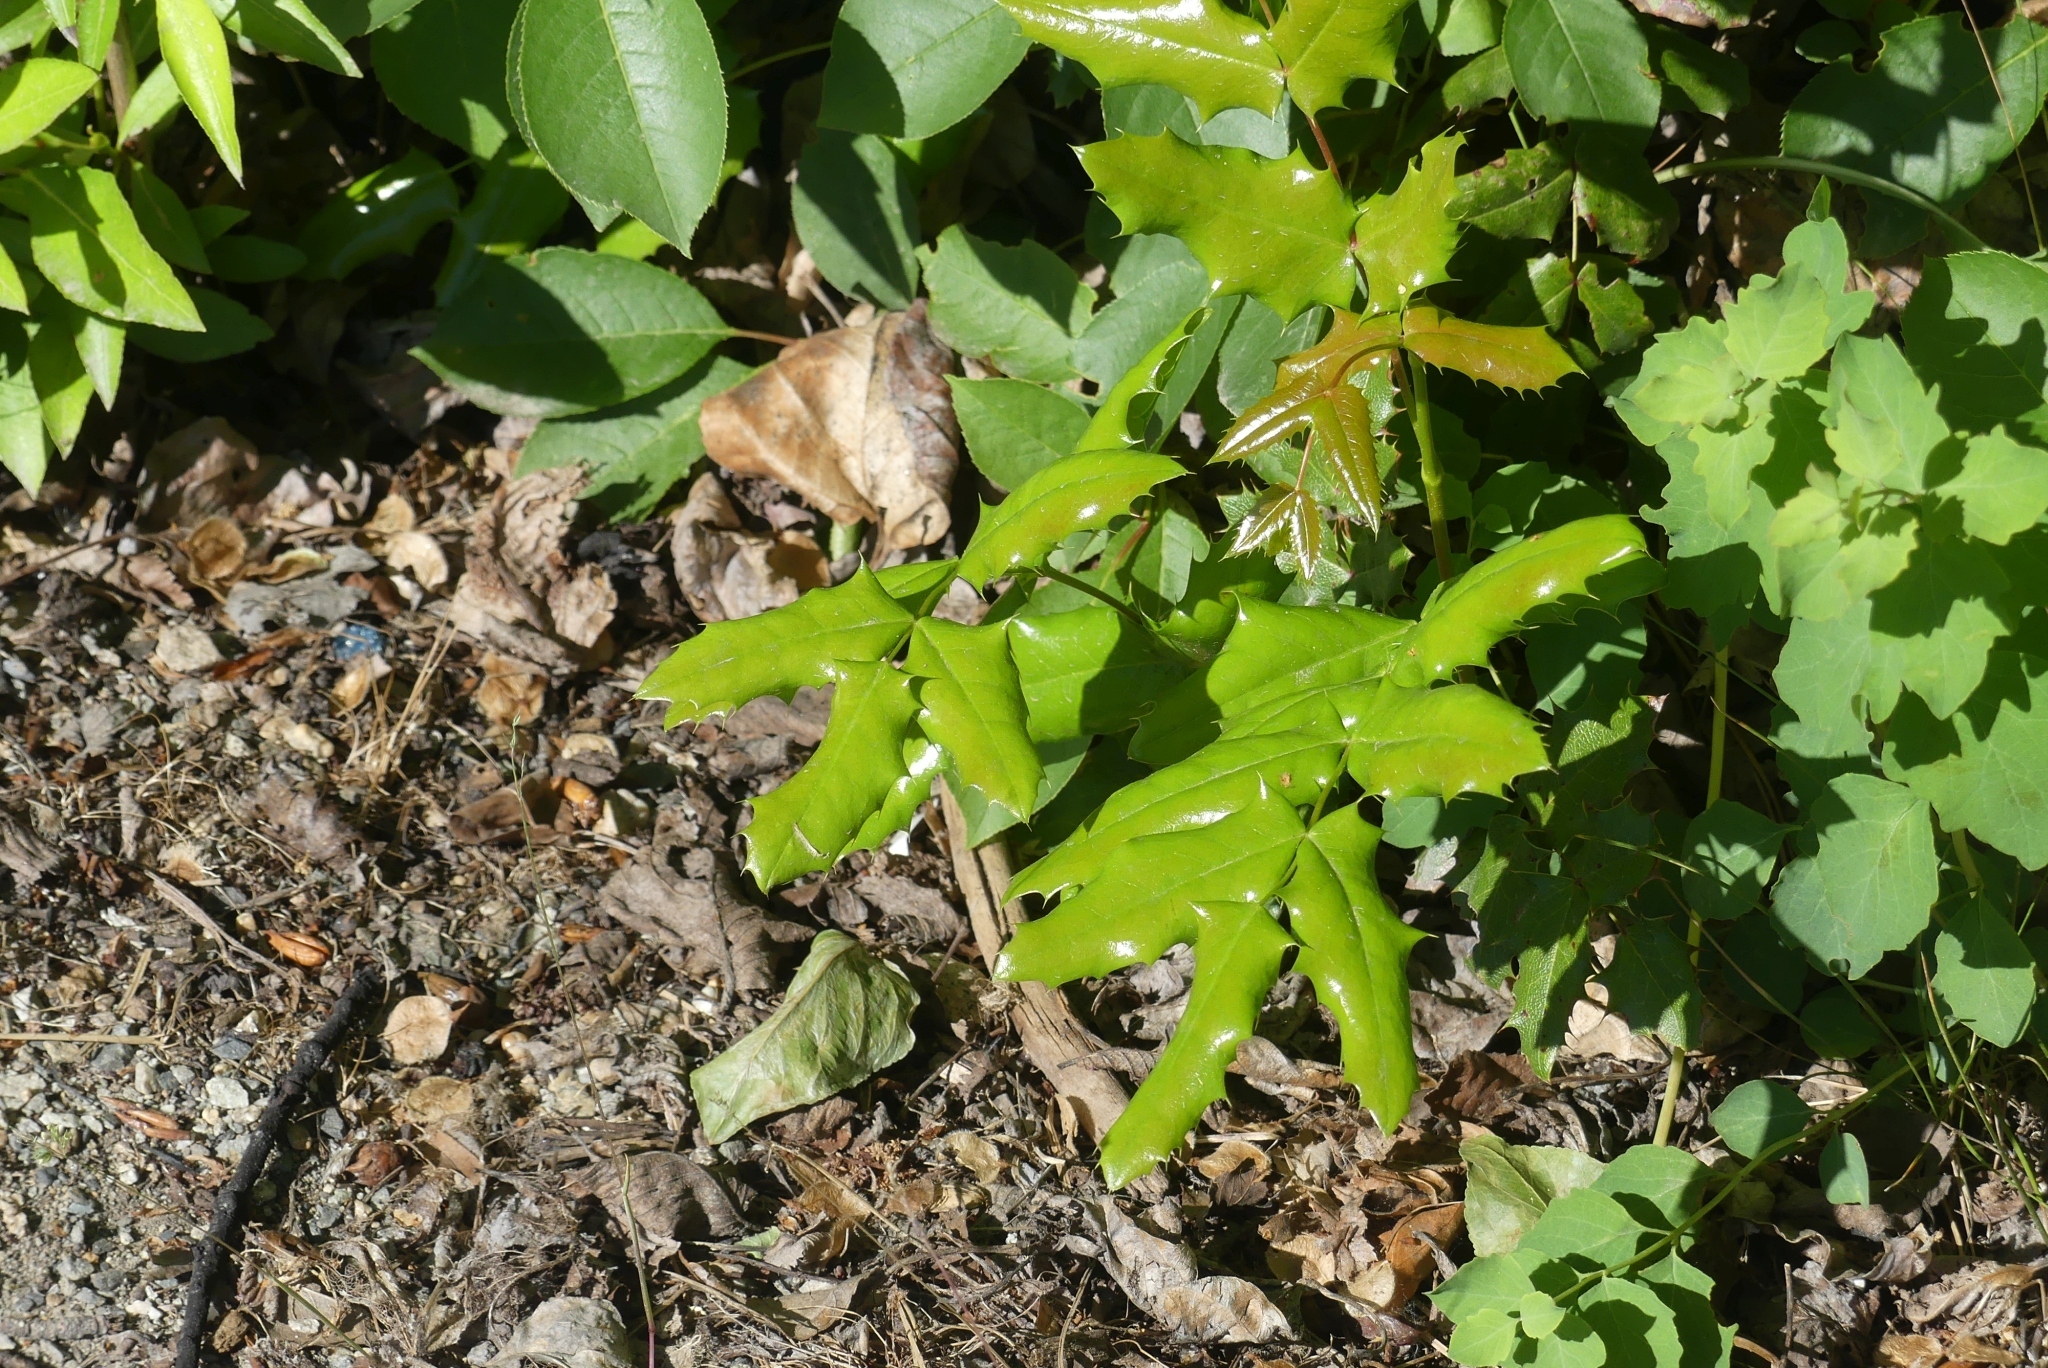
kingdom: Plantae
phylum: Tracheophyta
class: Magnoliopsida
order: Ranunculales
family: Berberidaceae
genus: Mahonia
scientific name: Mahonia aquifolium
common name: Oregon-grape
